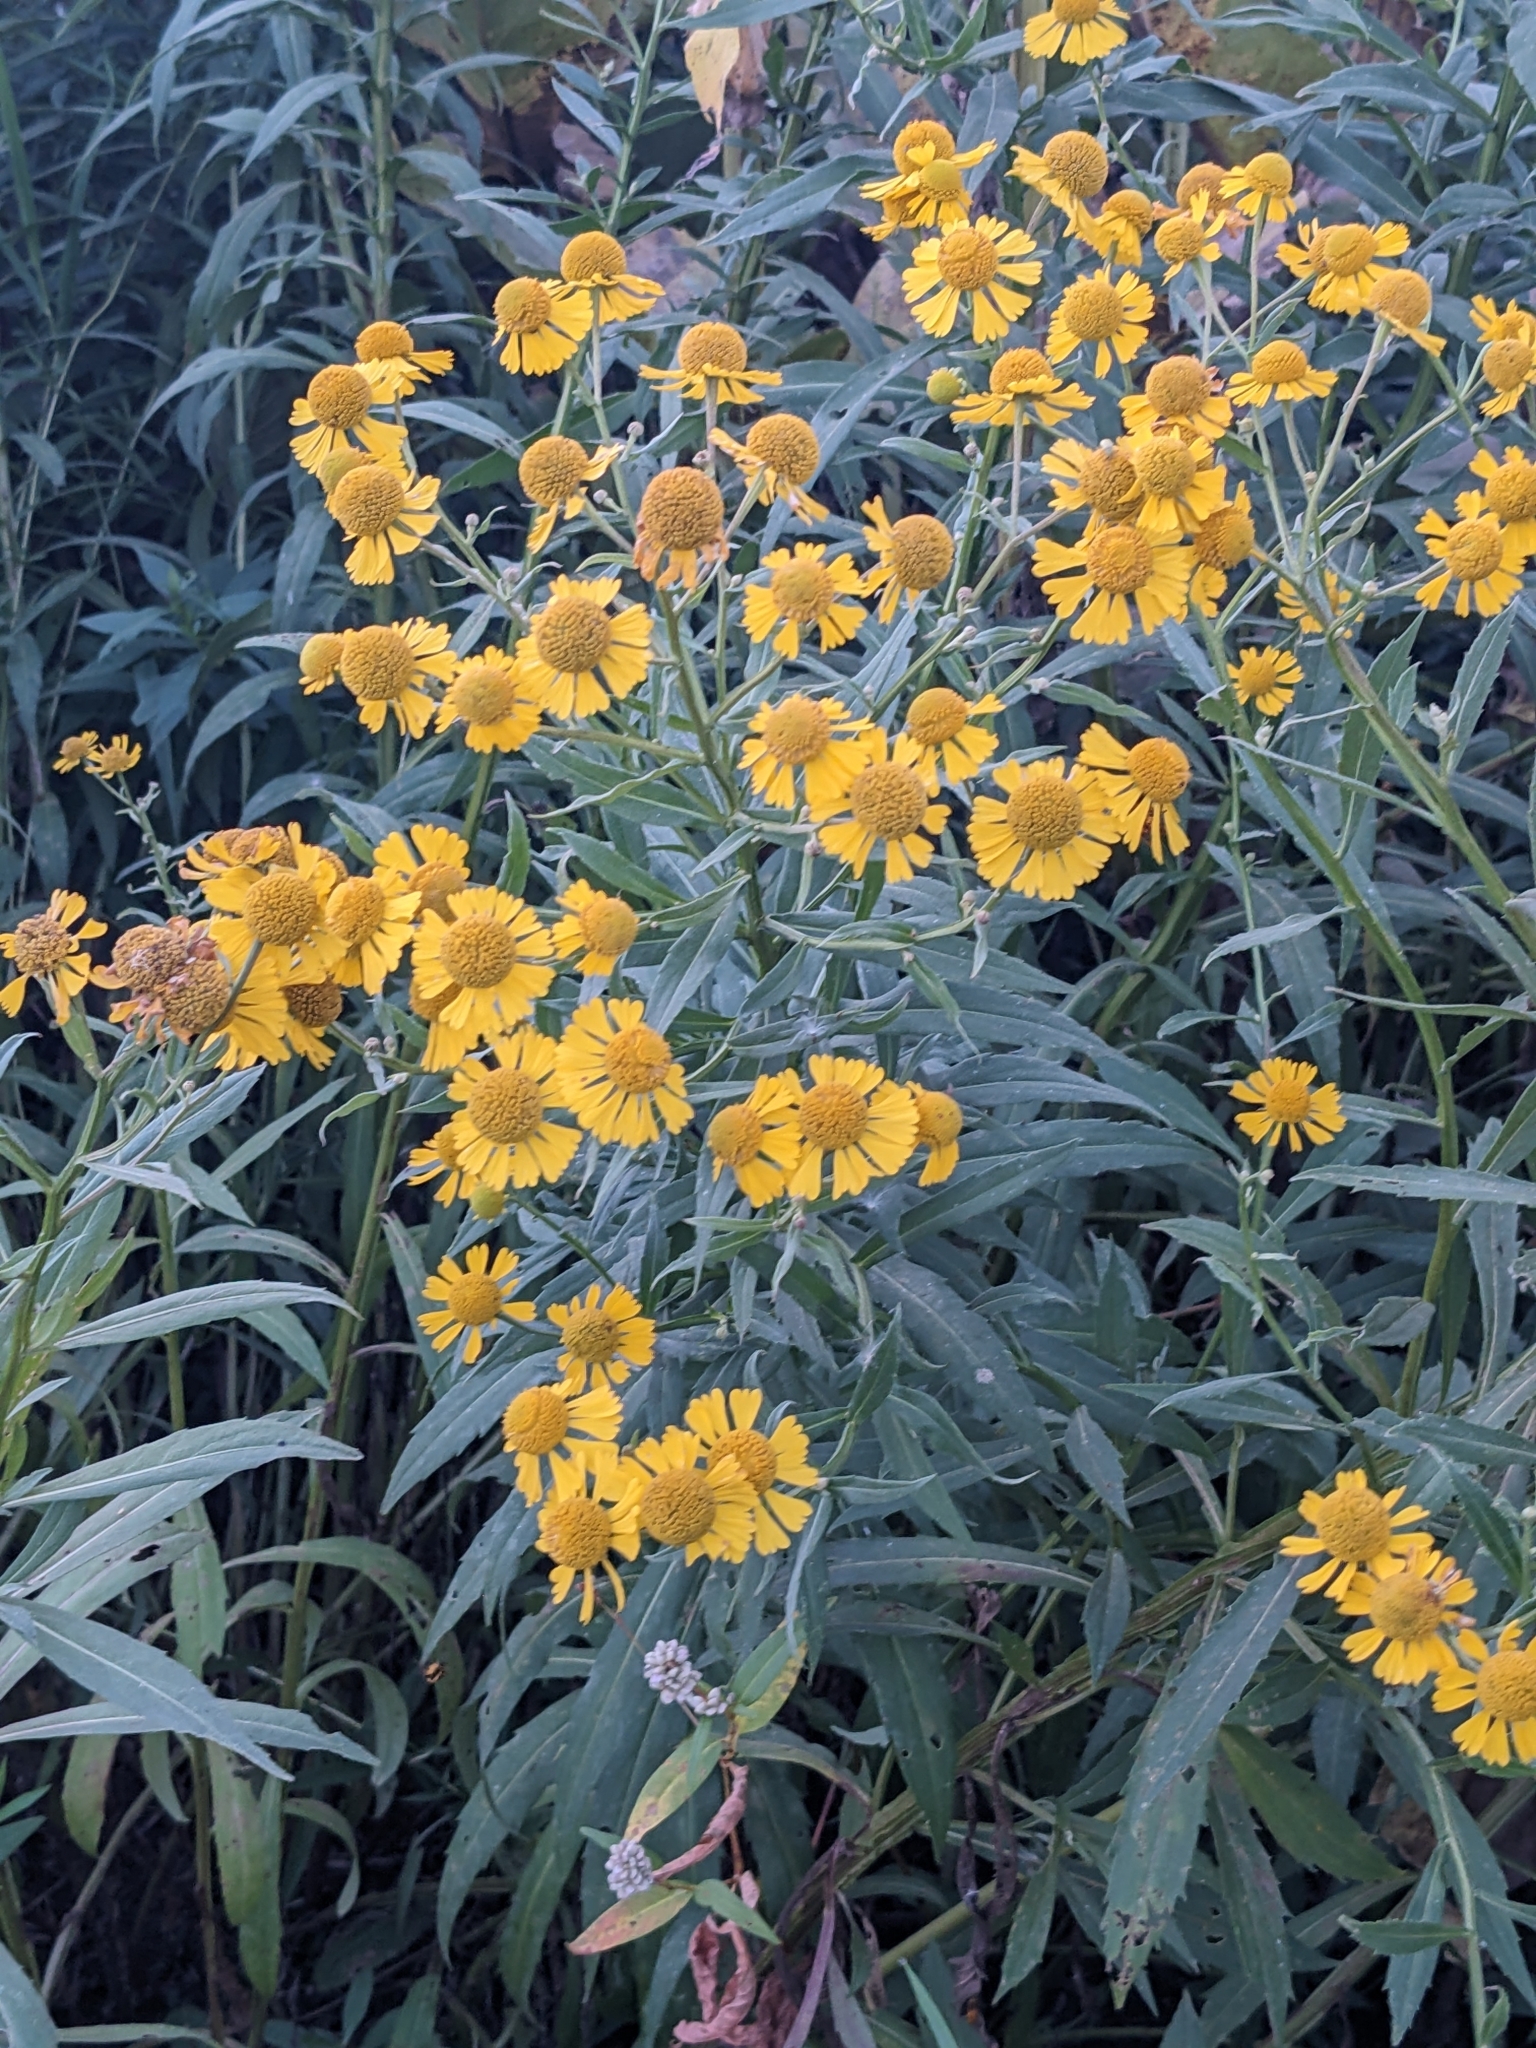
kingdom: Plantae
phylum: Tracheophyta
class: Magnoliopsida
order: Asterales
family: Asteraceae
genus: Helenium
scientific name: Helenium autumnale
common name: Sneezeweed
